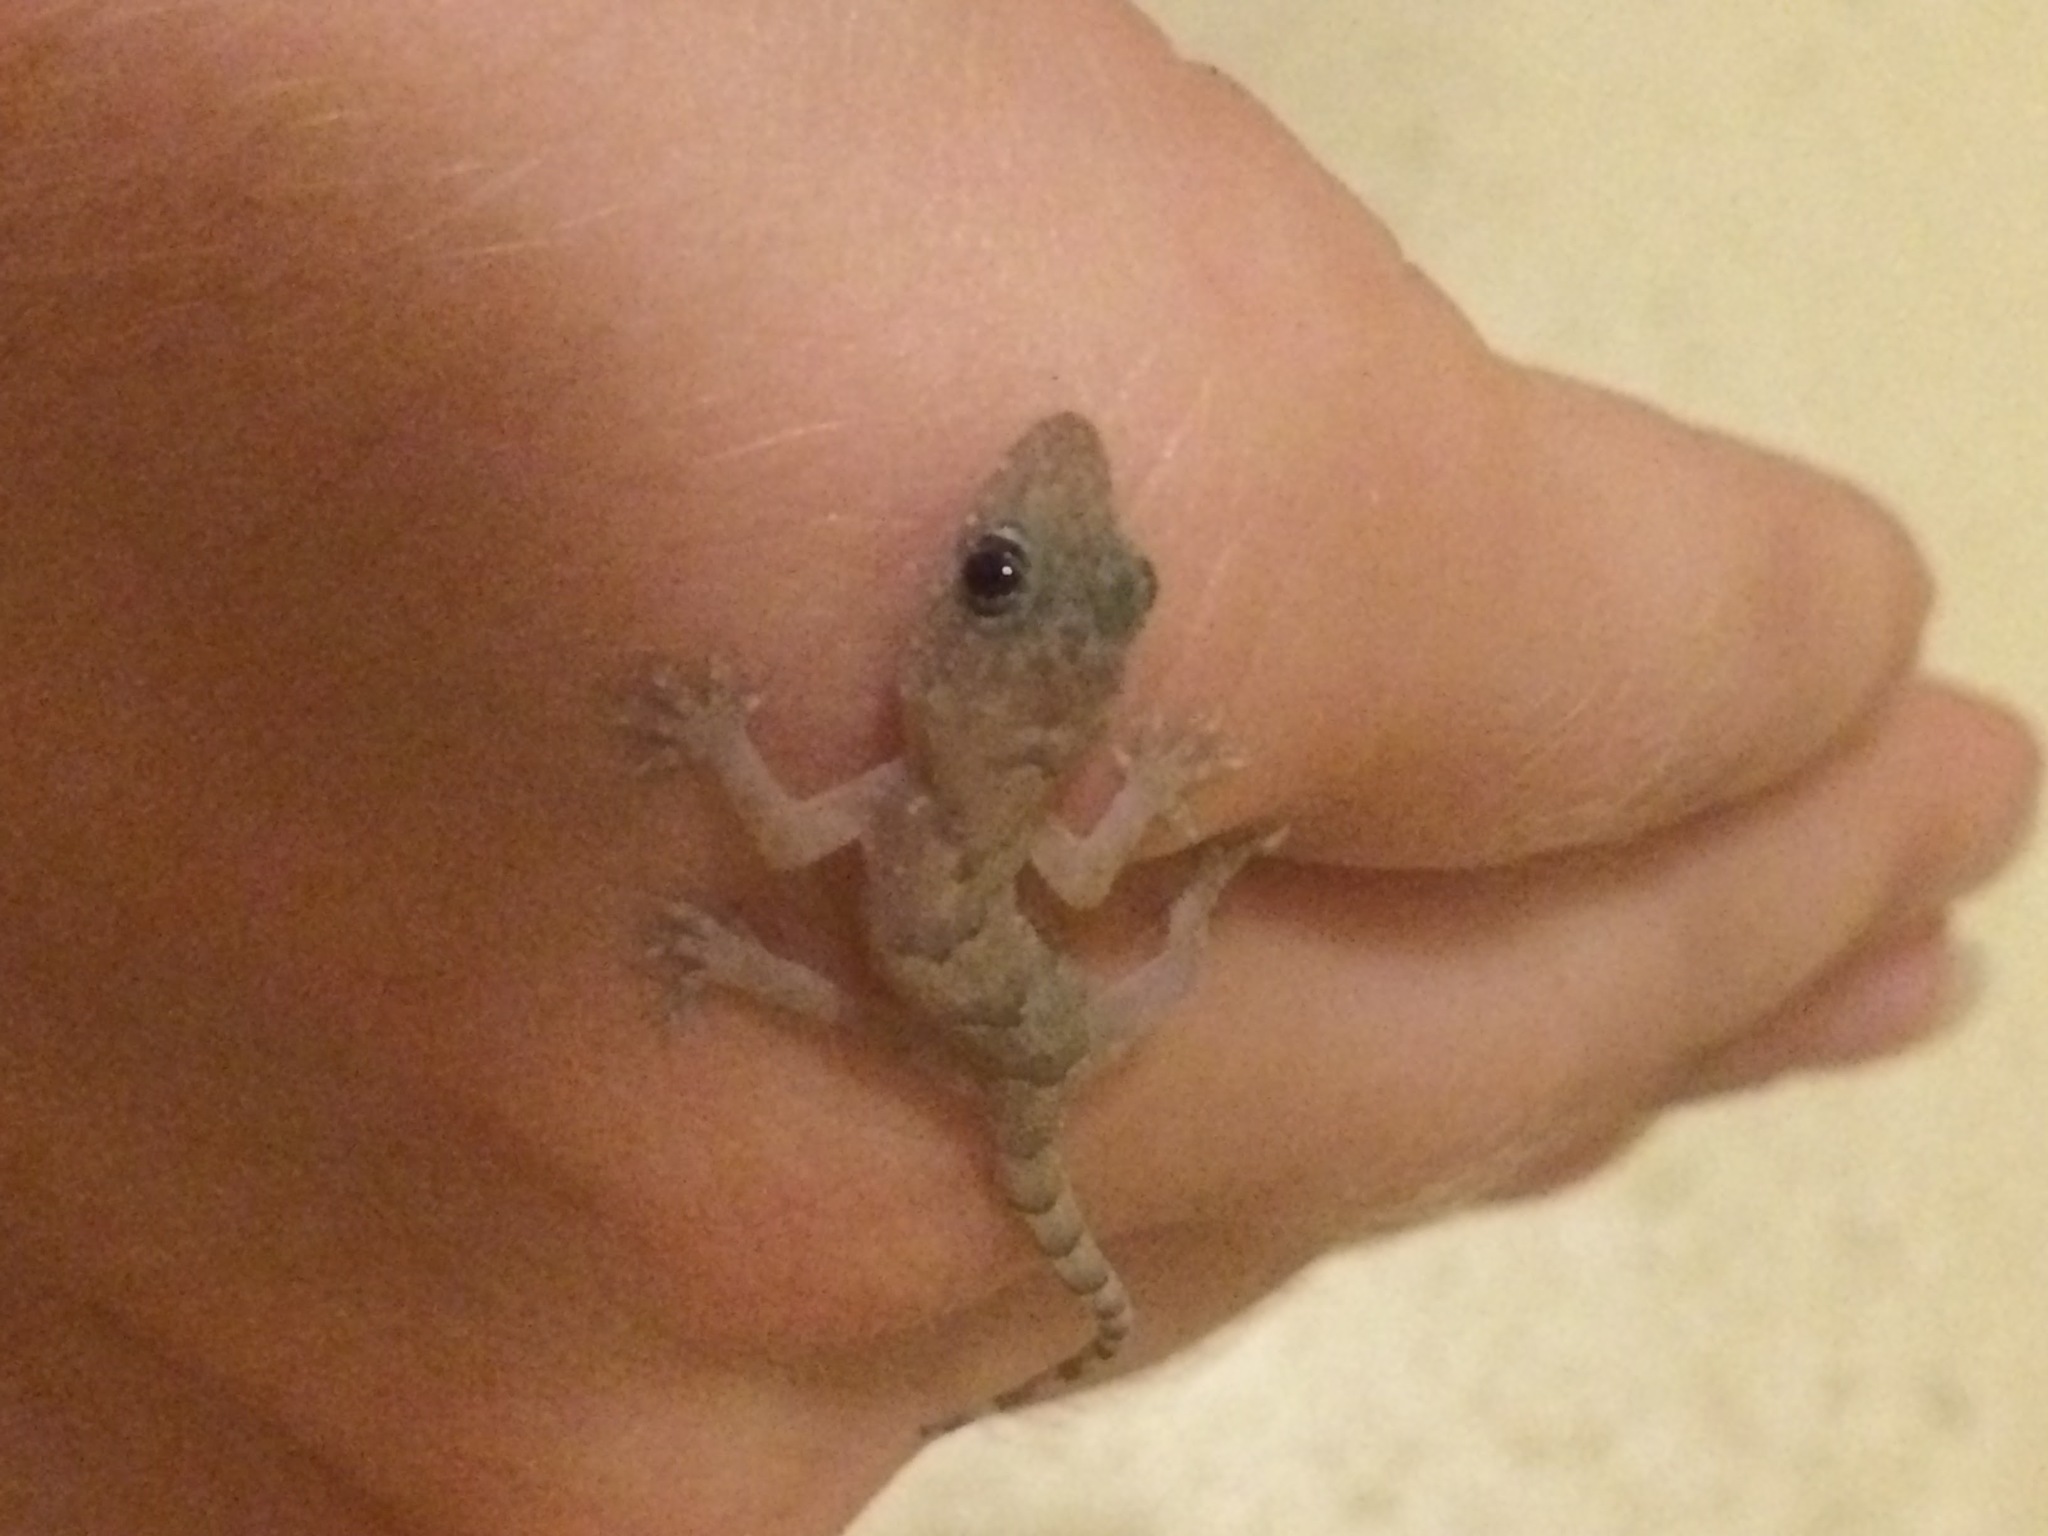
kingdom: Animalia
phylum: Chordata
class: Squamata
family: Gekkonidae
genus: Hemidactylus
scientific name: Hemidactylus mabouia
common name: House gecko
